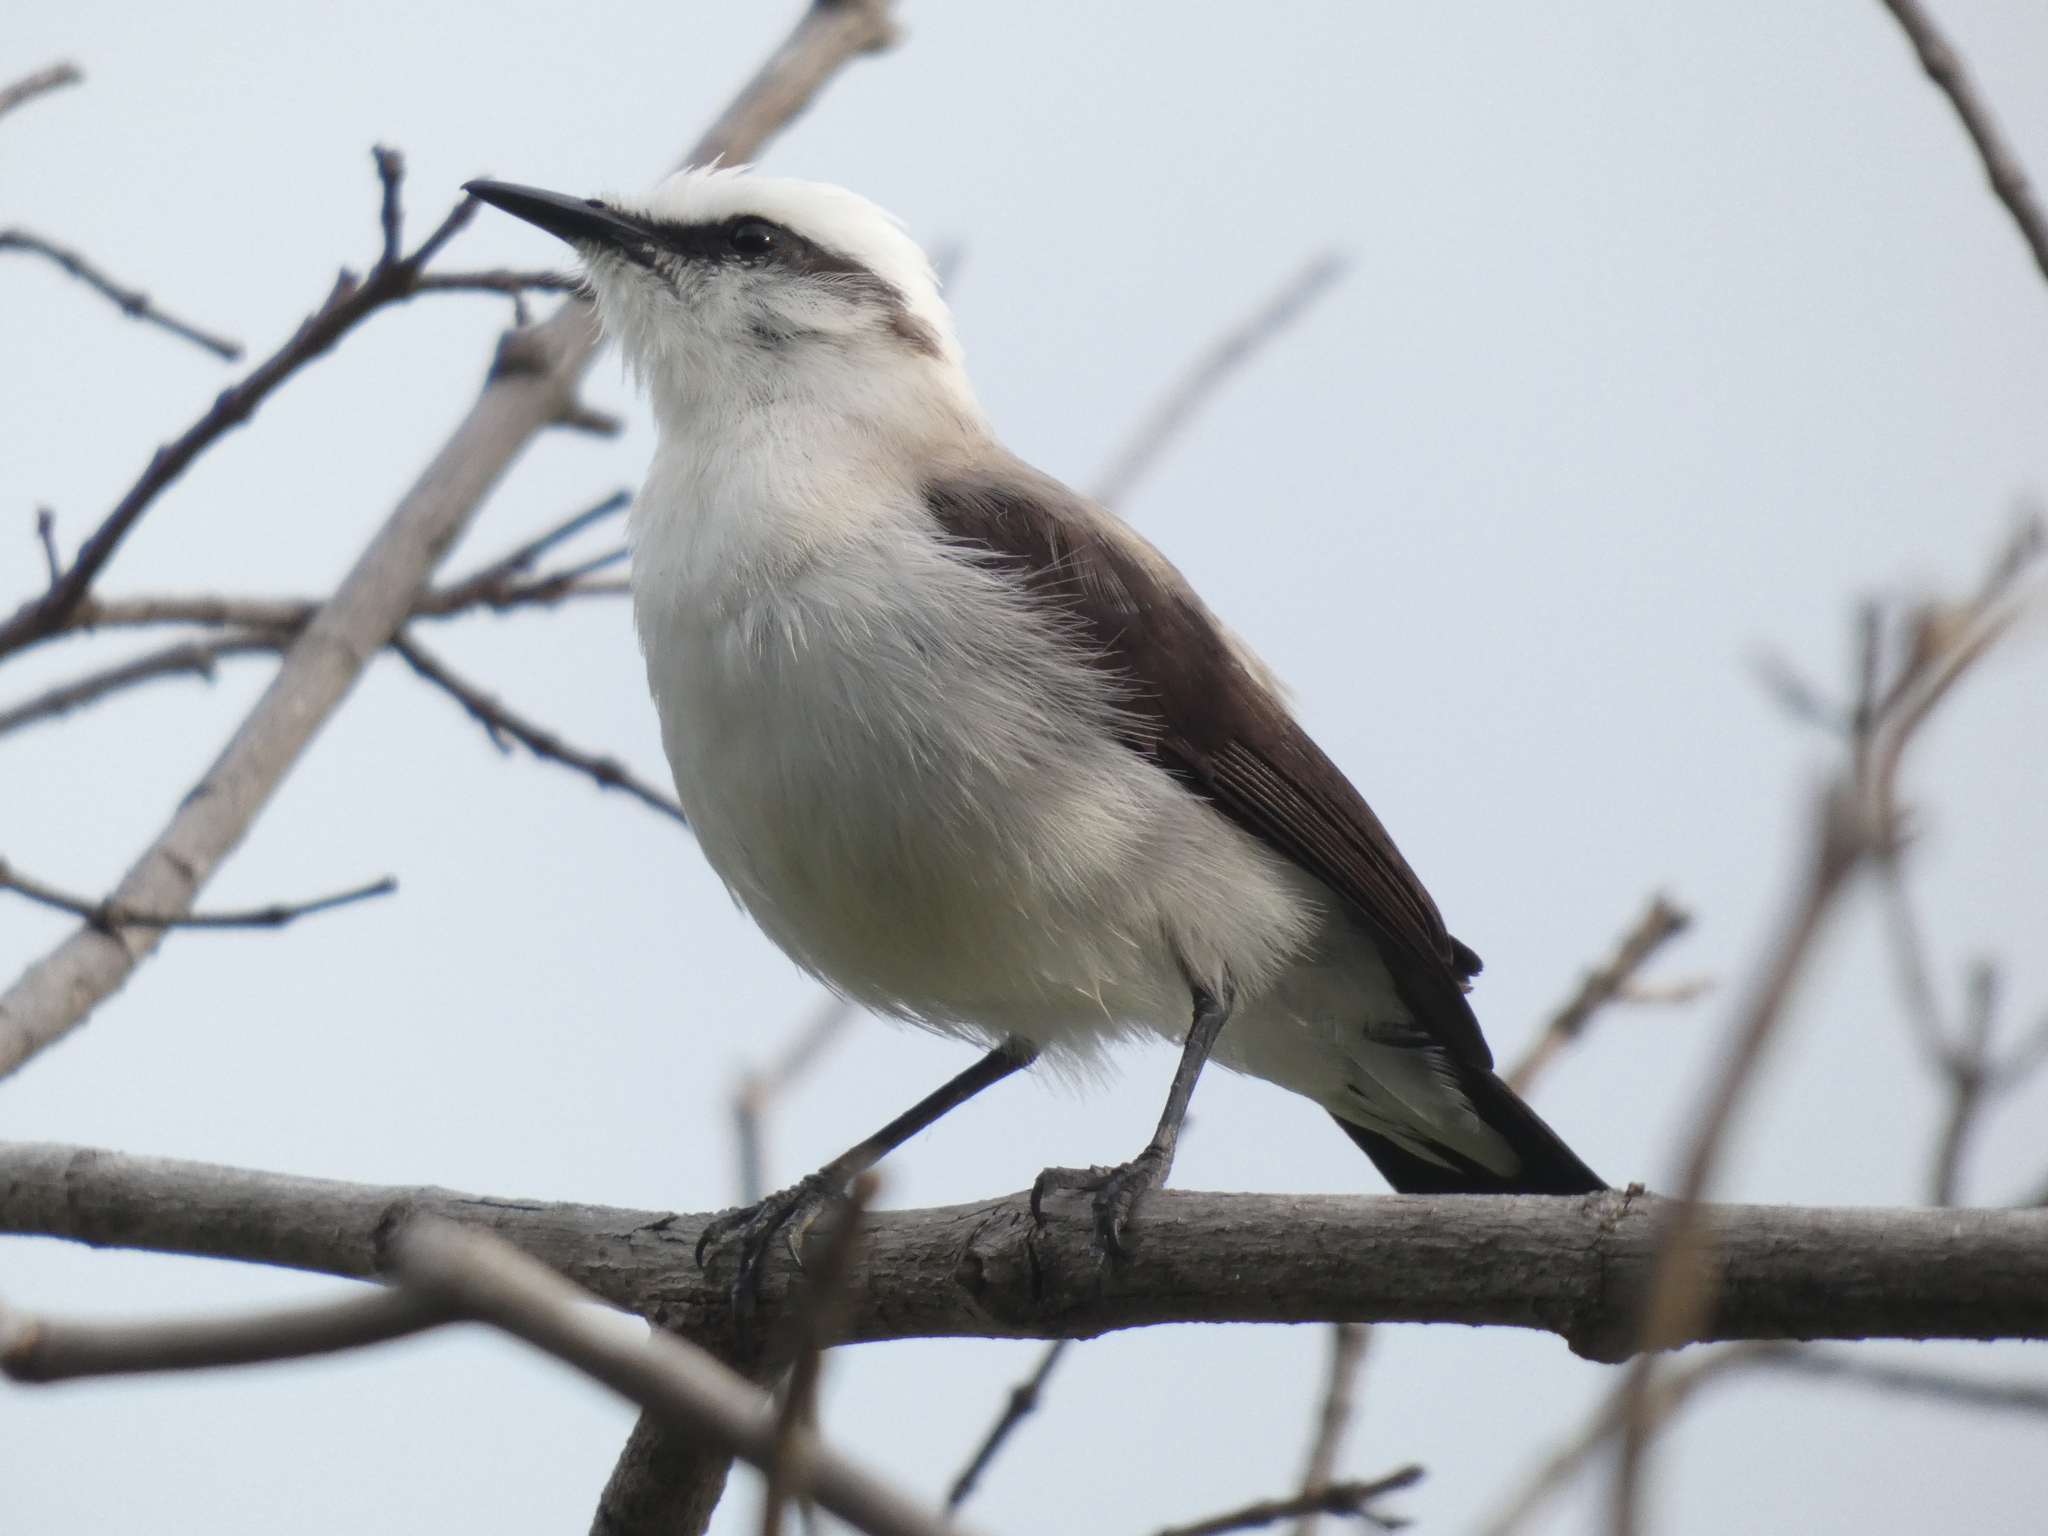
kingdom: Animalia
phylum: Chordata
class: Aves
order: Passeriformes
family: Tyrannidae
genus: Fluvicola
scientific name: Fluvicola nengeta
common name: Masked water tyrant
